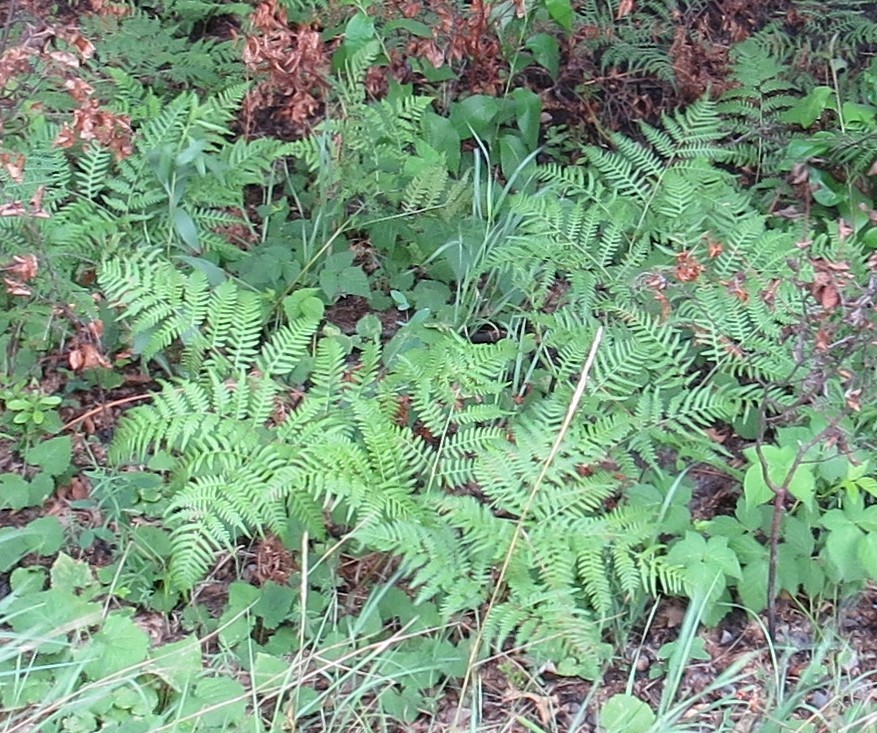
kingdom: Plantae
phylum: Tracheophyta
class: Polypodiopsida
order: Polypodiales
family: Dennstaedtiaceae
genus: Pteridium
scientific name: Pteridium aquilinum
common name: Bracken
